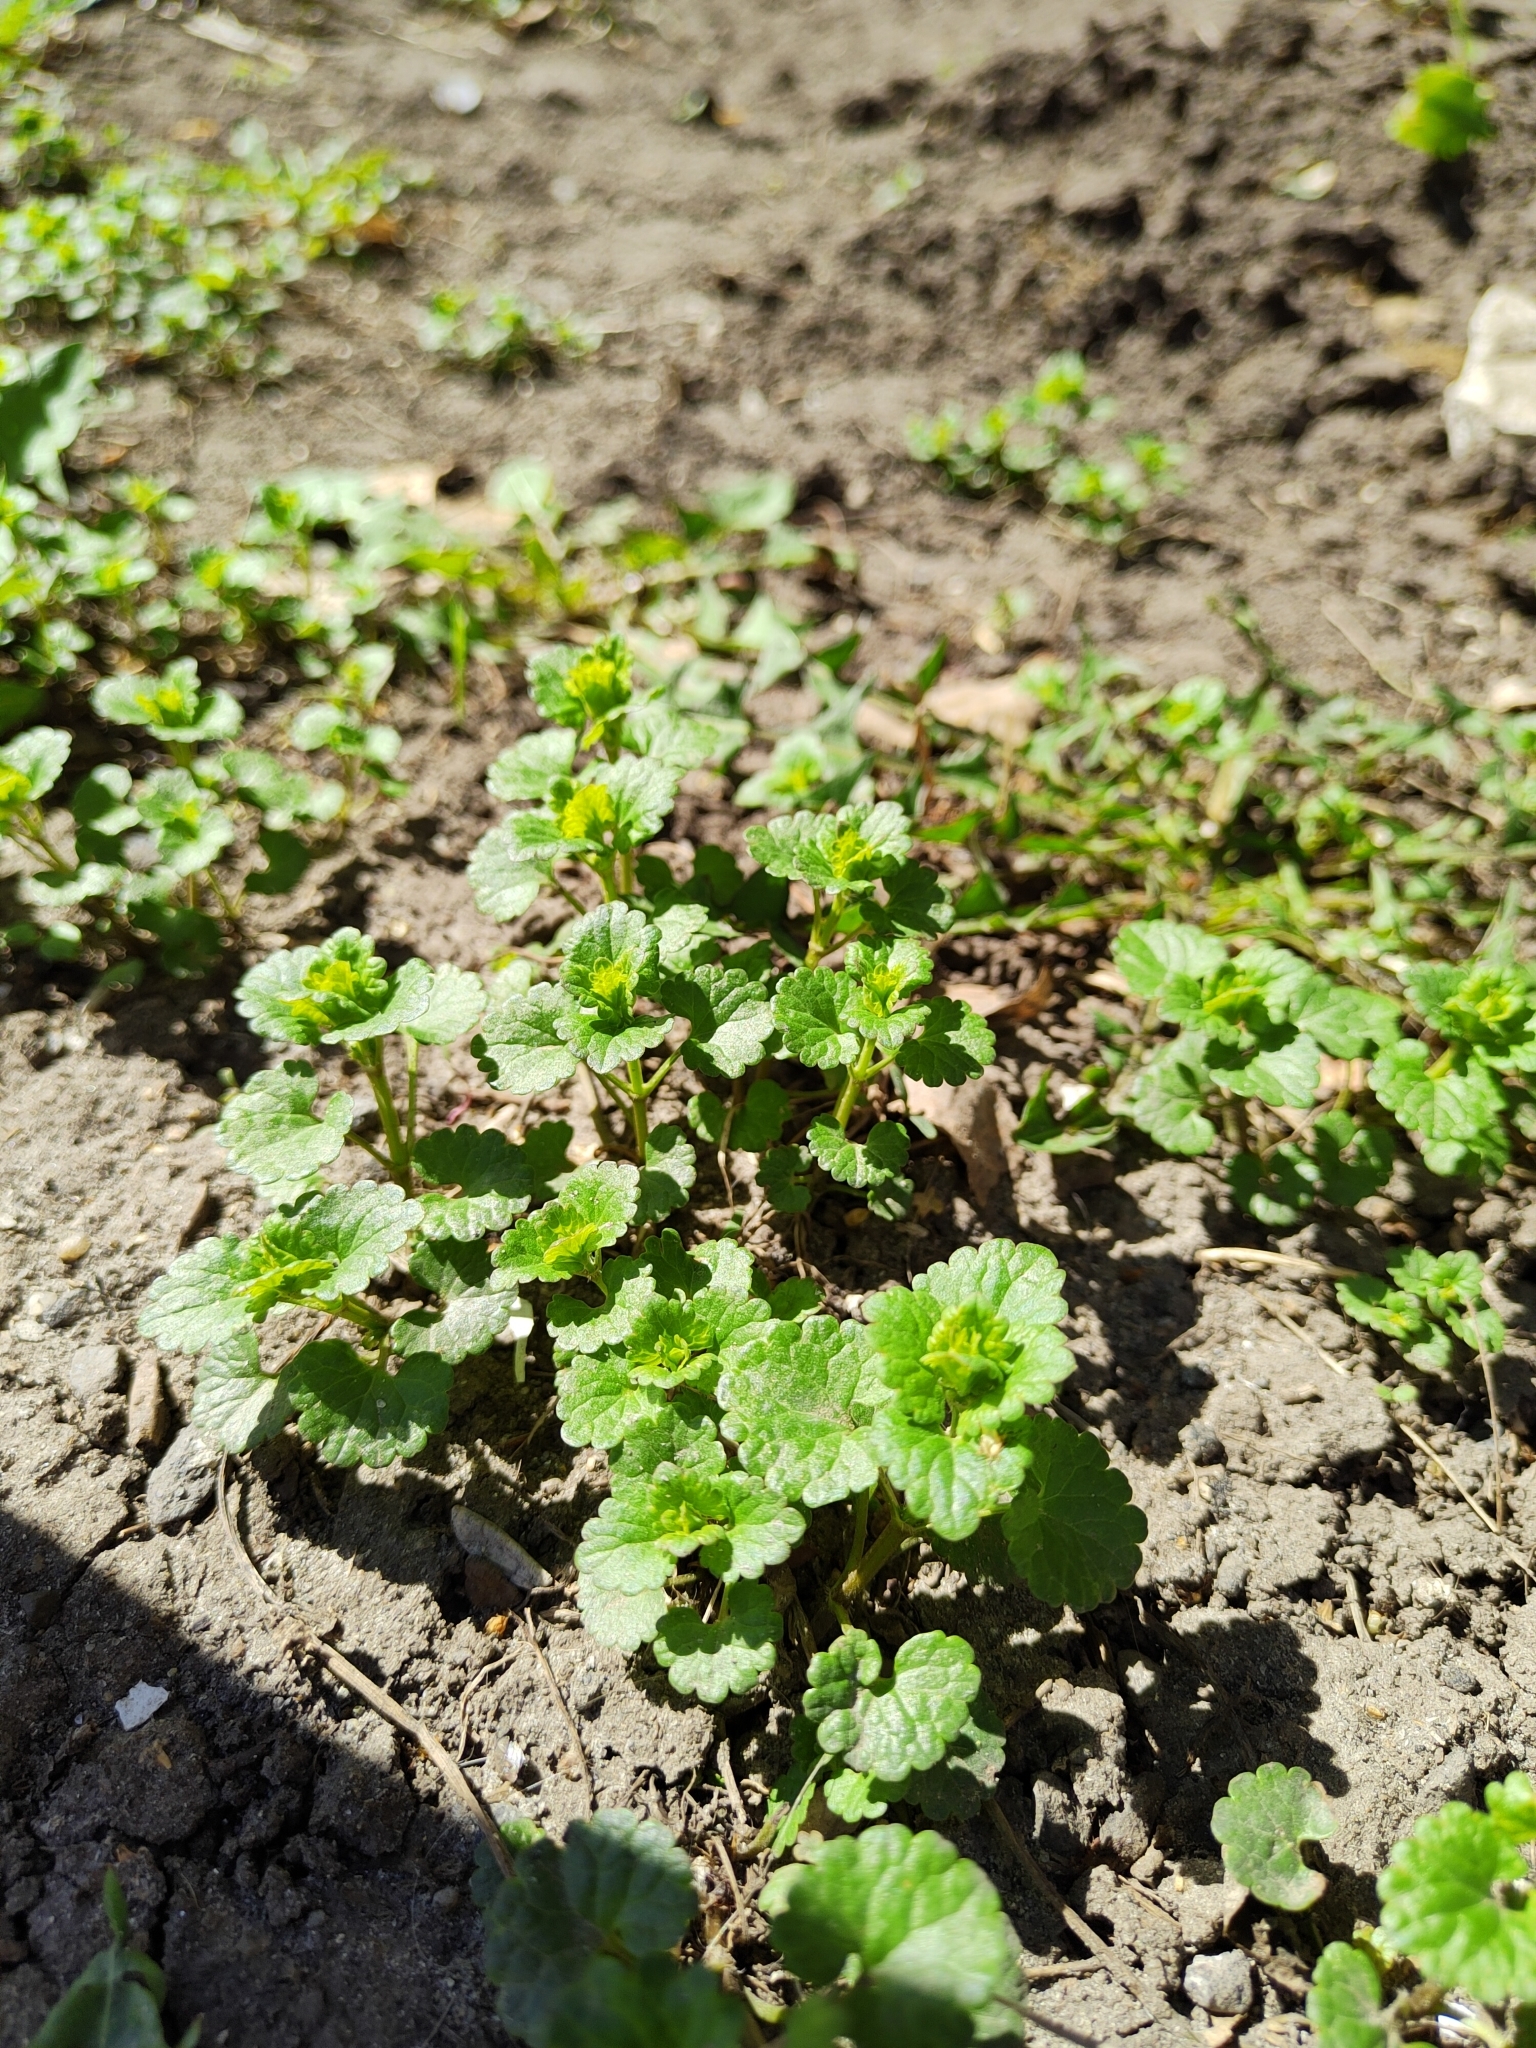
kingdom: Plantae
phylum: Tracheophyta
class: Magnoliopsida
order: Lamiales
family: Lamiaceae
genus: Glechoma
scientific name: Glechoma hederacea
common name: Ground ivy
